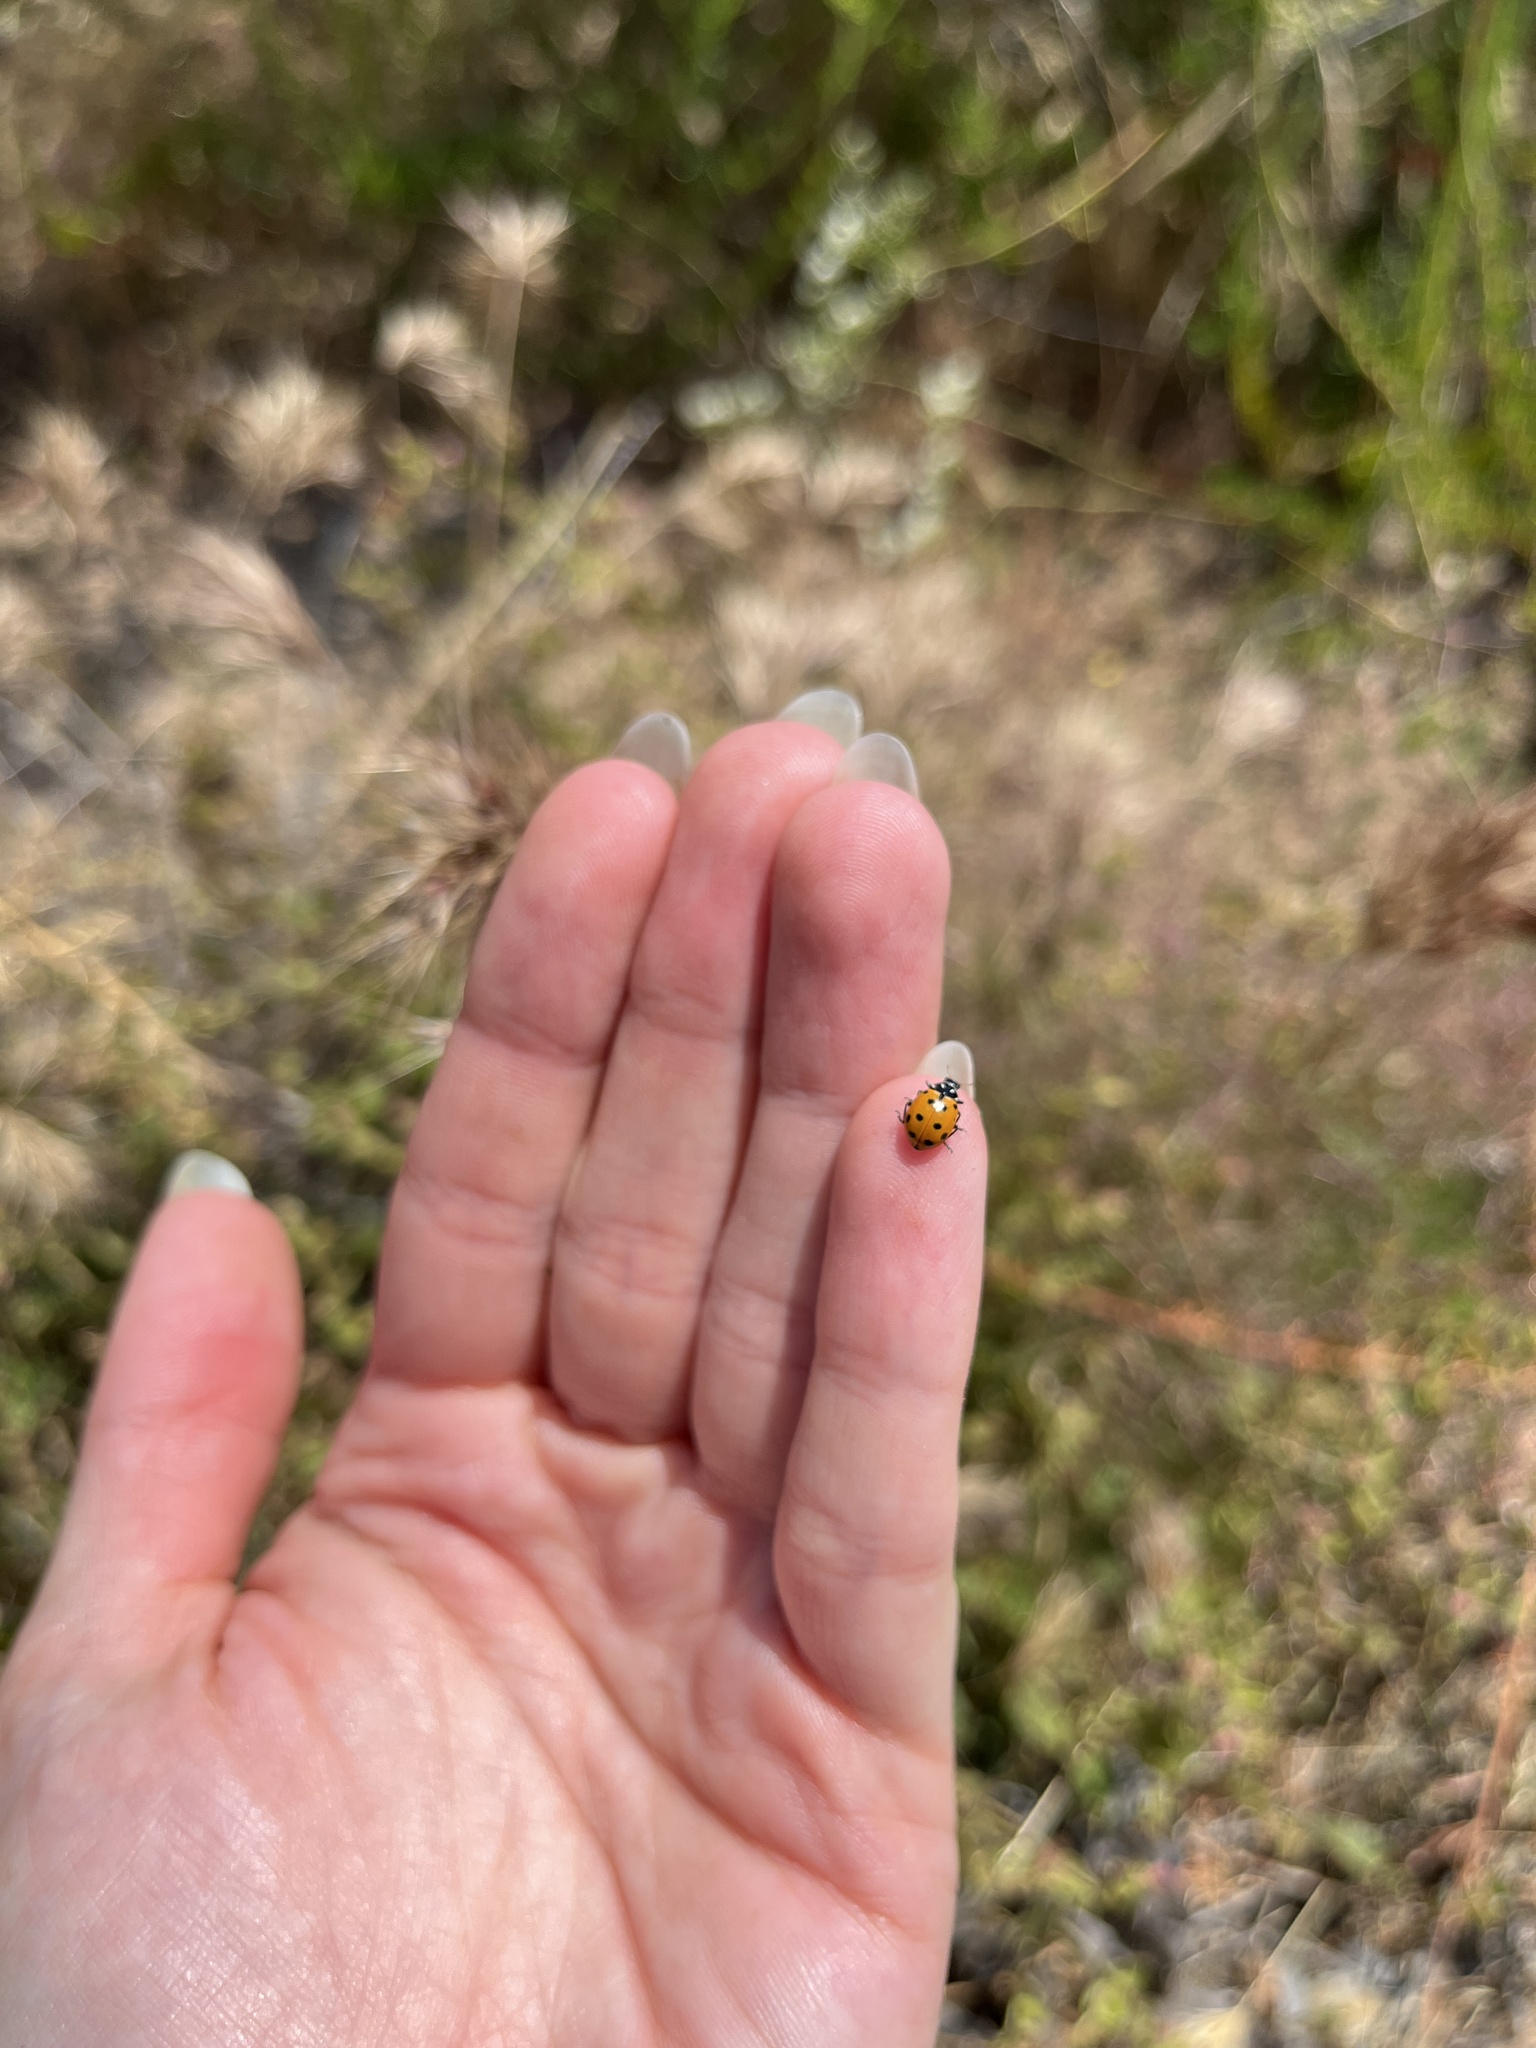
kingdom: Animalia
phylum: Arthropoda
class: Insecta
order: Coleoptera
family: Coccinellidae
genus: Hippodamia
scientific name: Hippodamia convergens
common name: Convergent lady beetle
